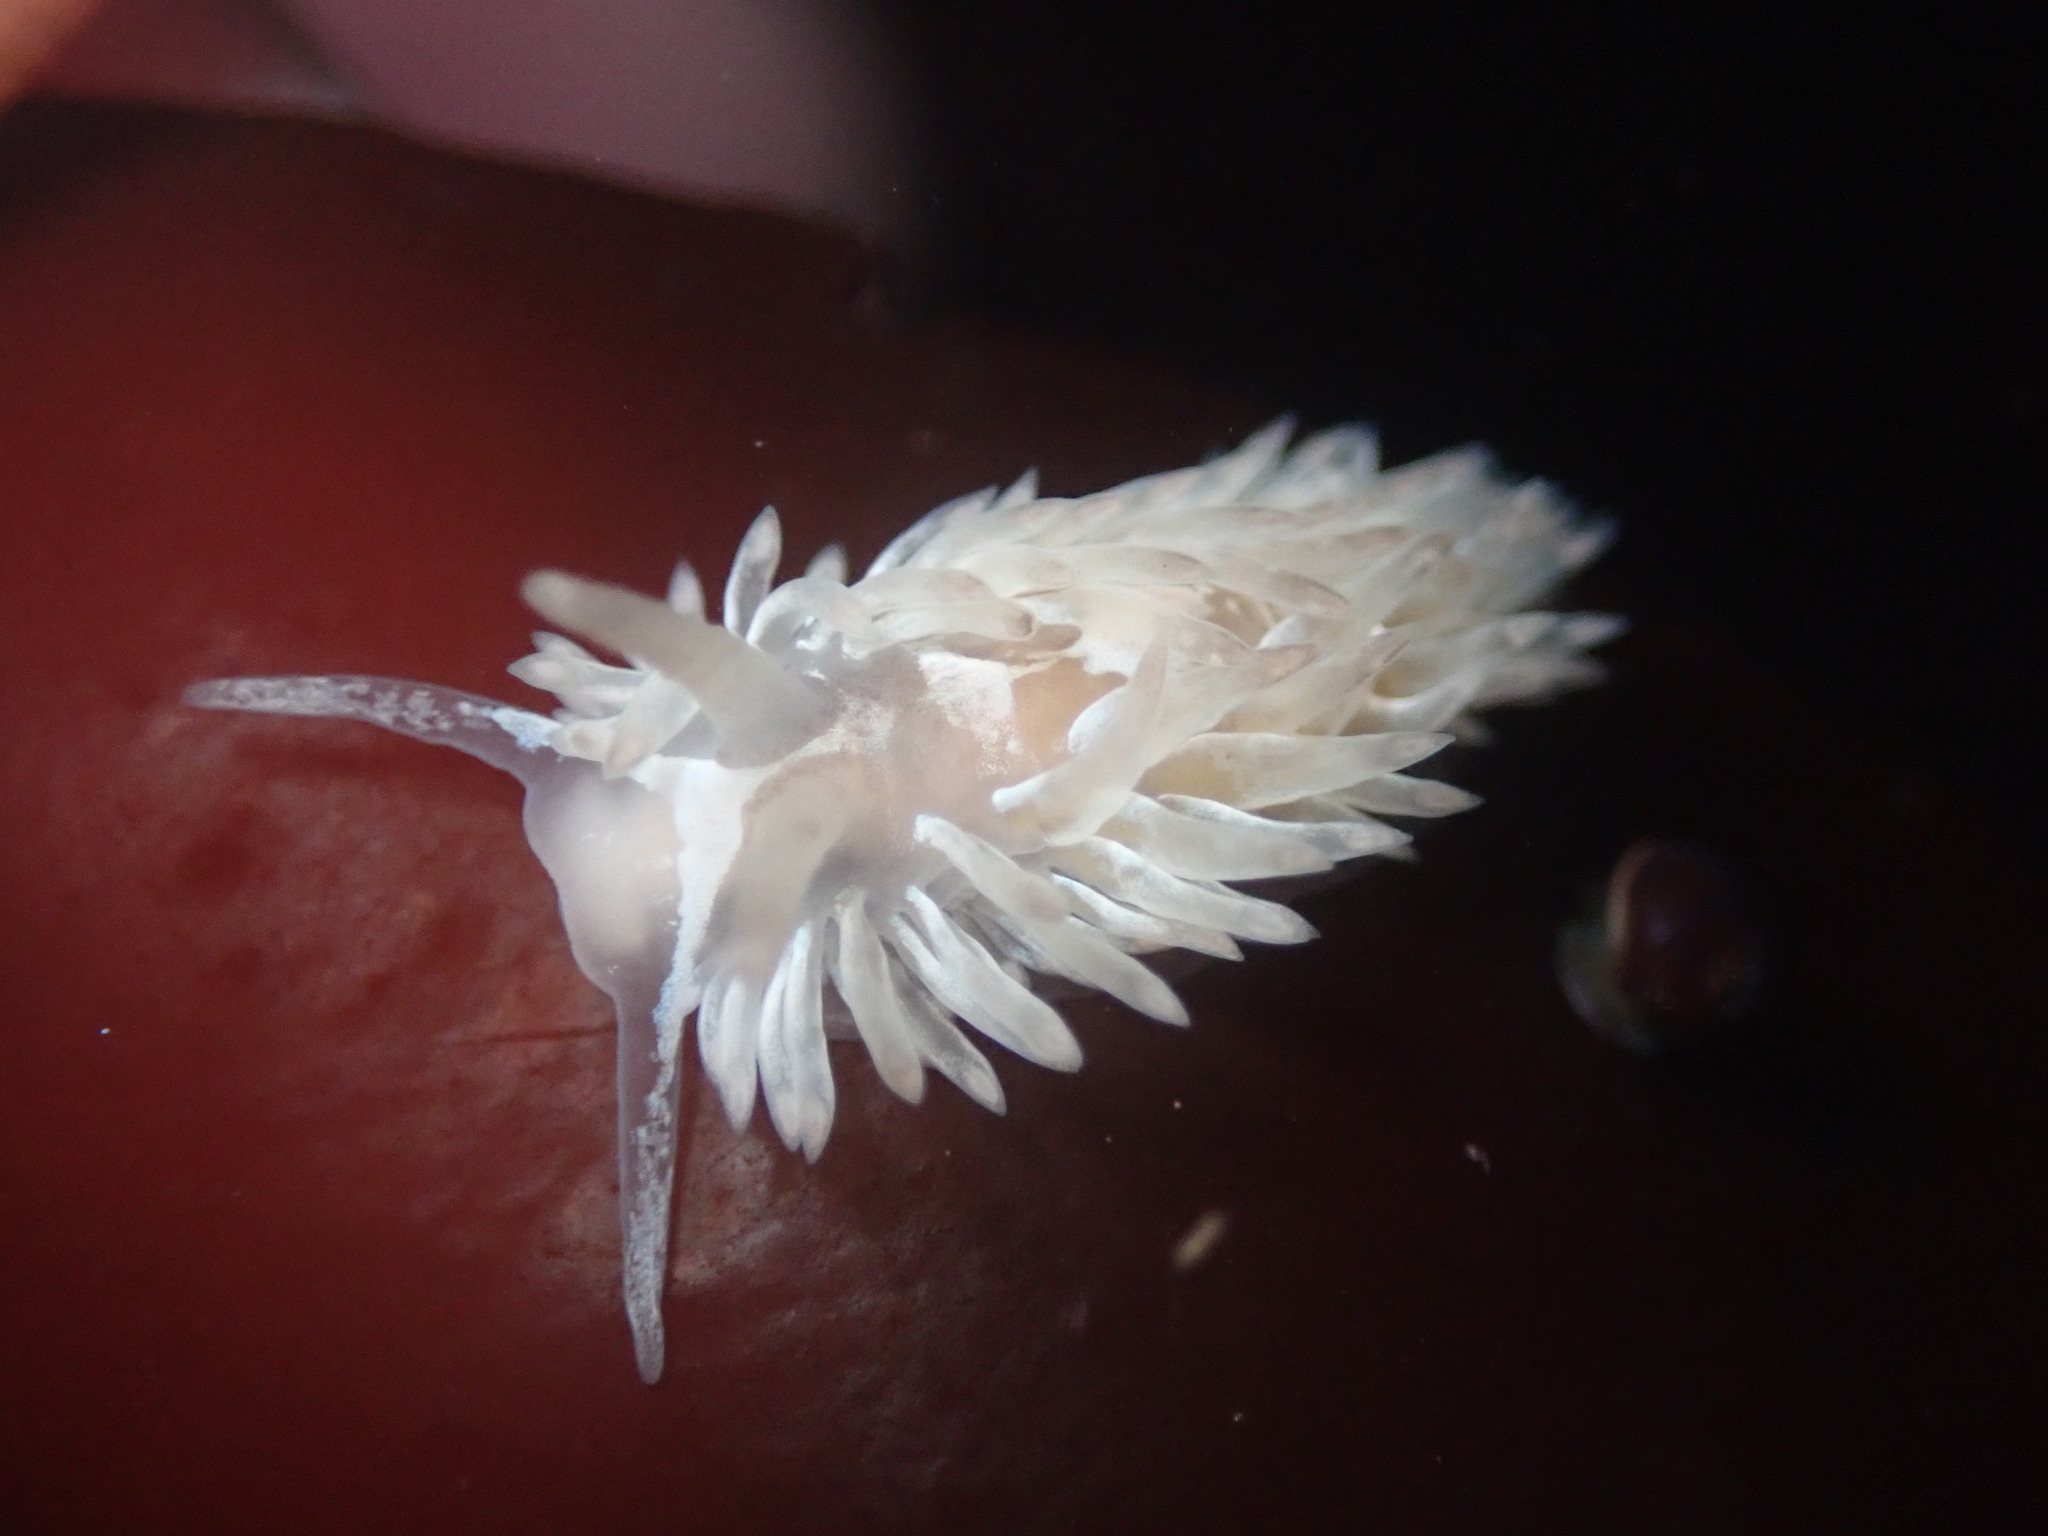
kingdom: Animalia
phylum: Mollusca
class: Gastropoda
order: Nudibranchia
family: Aeolidiidae
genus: Aeolidia
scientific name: Aeolidia loui
